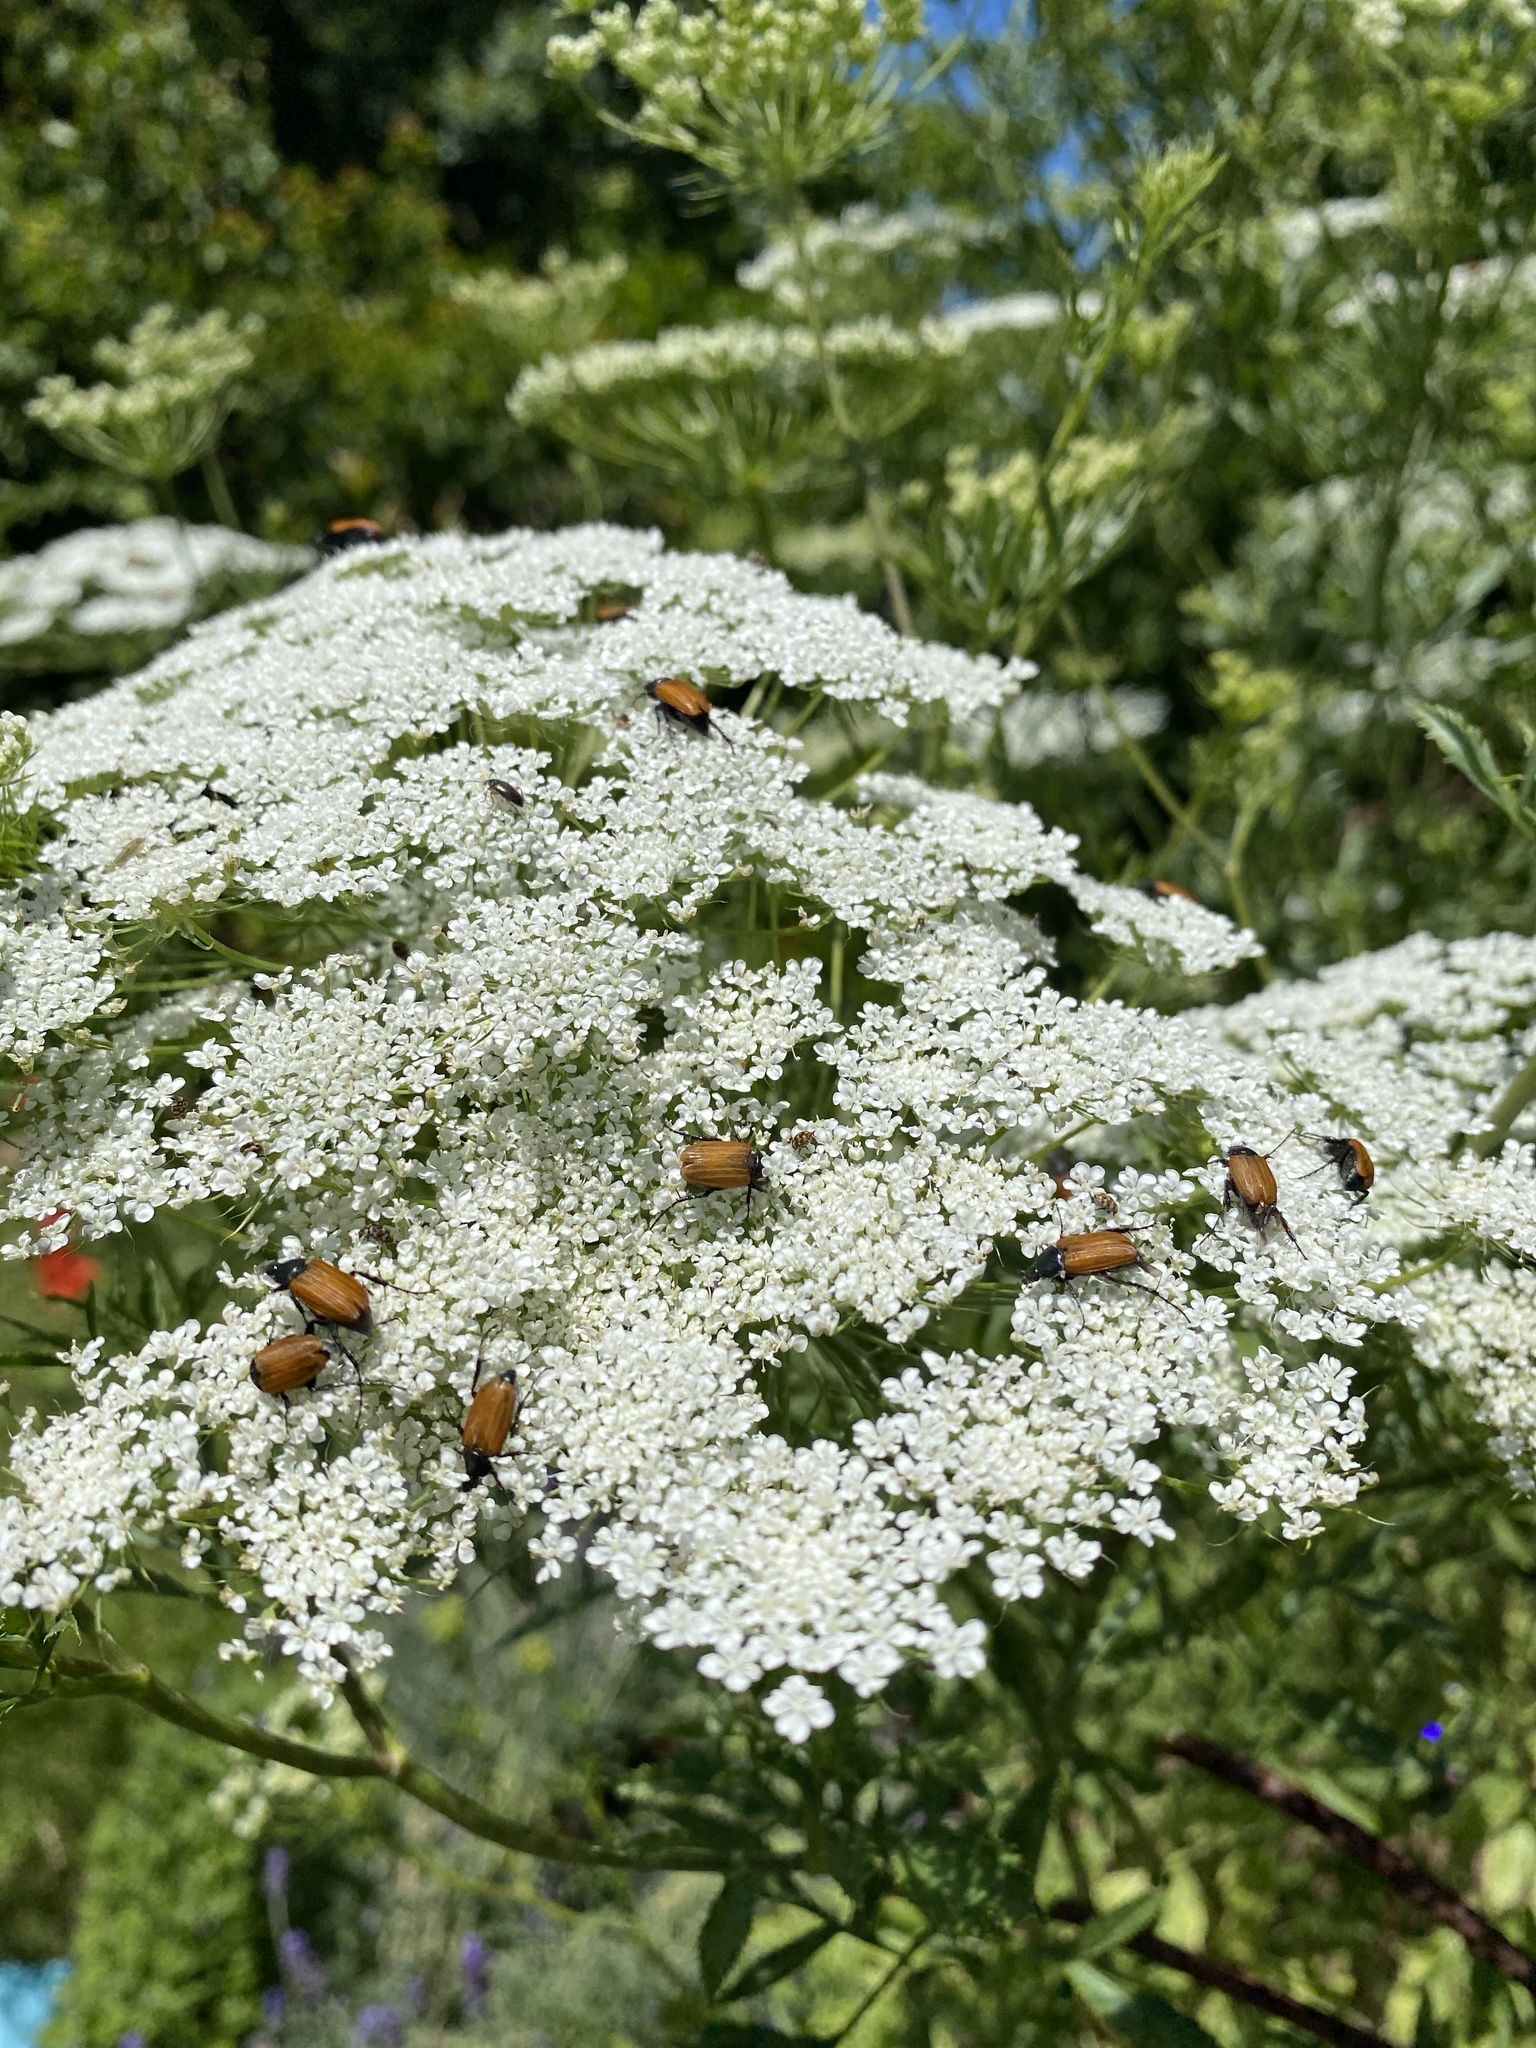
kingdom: Plantae
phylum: Tracheophyta
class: Magnoliopsida
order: Apiales
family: Apiaceae
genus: Daucus
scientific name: Daucus carota
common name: Wild carrot
